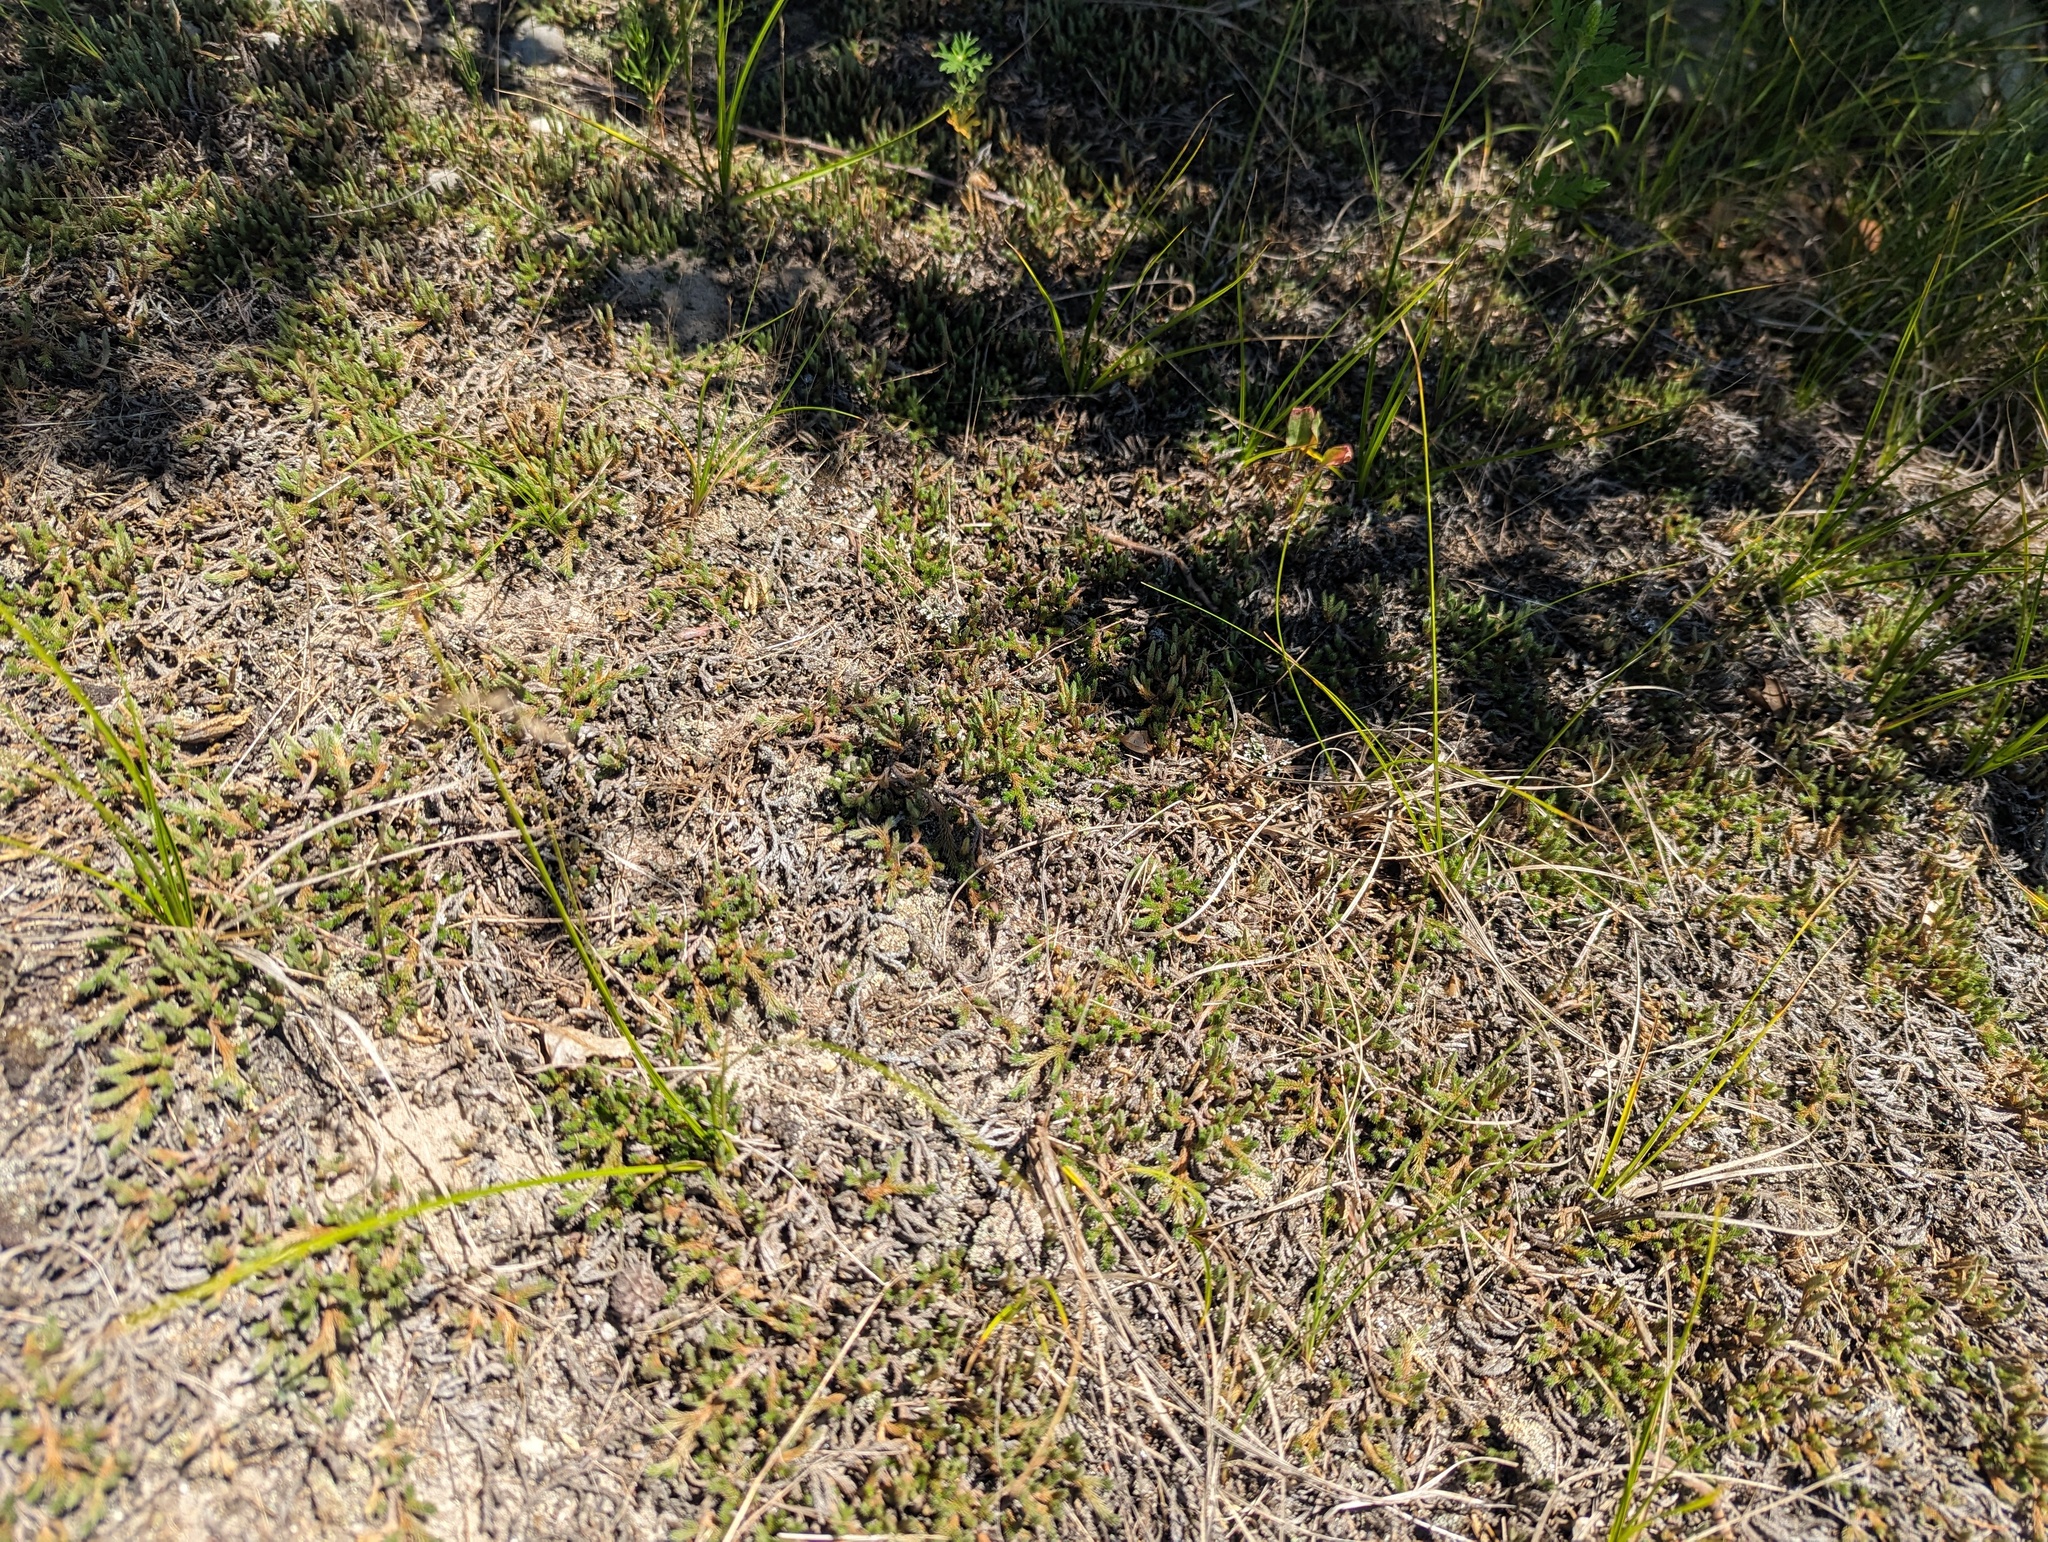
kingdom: Plantae
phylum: Tracheophyta
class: Lycopodiopsida
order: Selaginellales
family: Selaginellaceae
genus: Selaginella
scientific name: Selaginella rupestris
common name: Dwarf spikemoss
